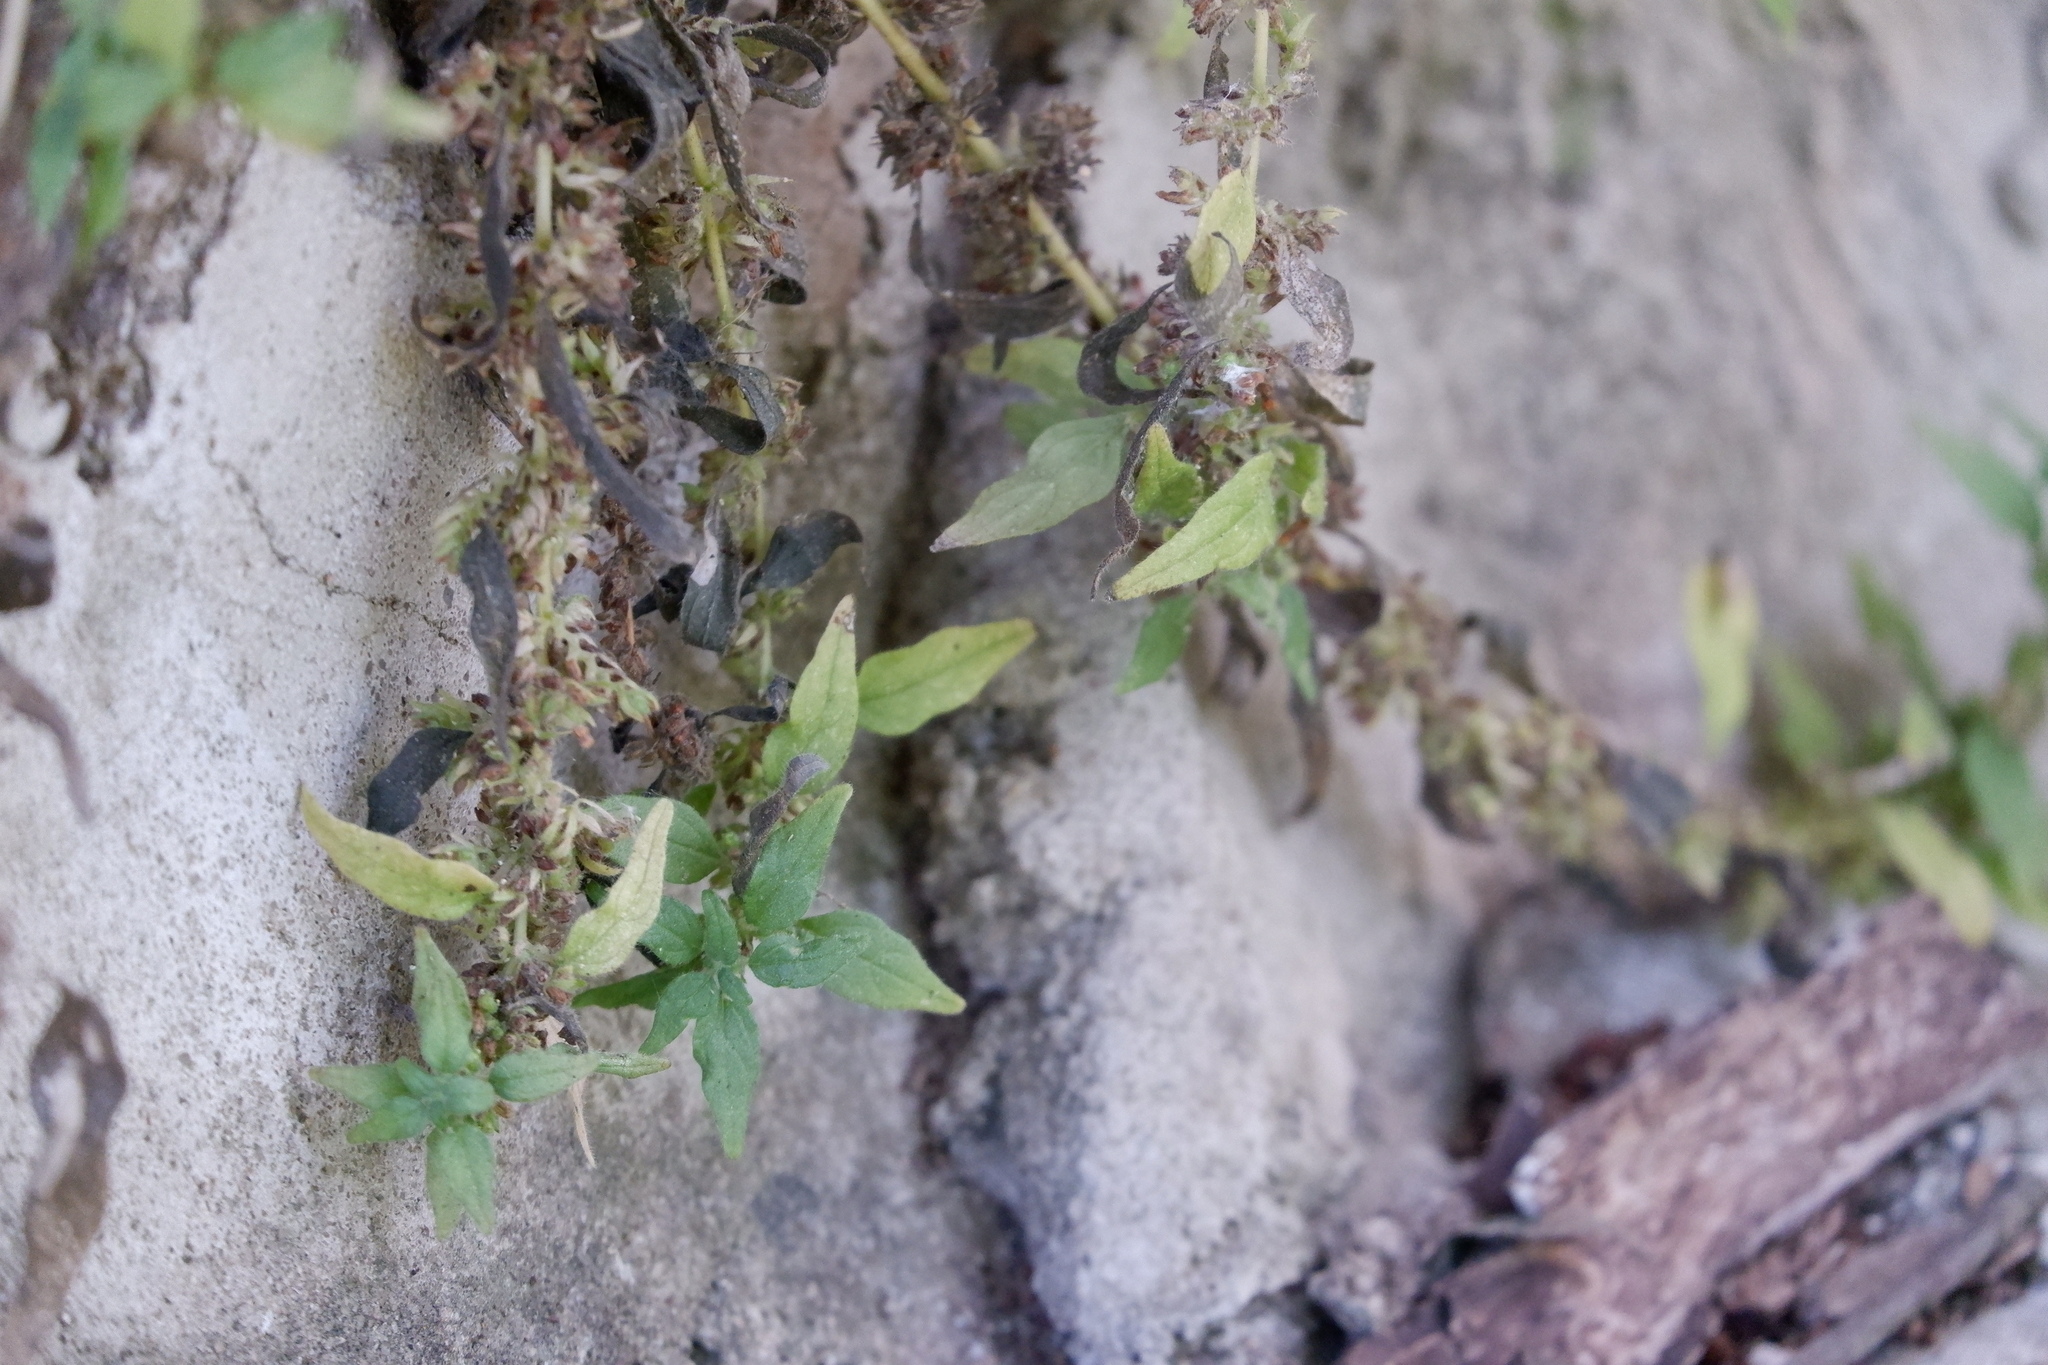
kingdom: Plantae
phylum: Tracheophyta
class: Magnoliopsida
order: Rosales
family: Urticaceae
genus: Parietaria
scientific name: Parietaria pensylvanica
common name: Pennsylvania pellitory
